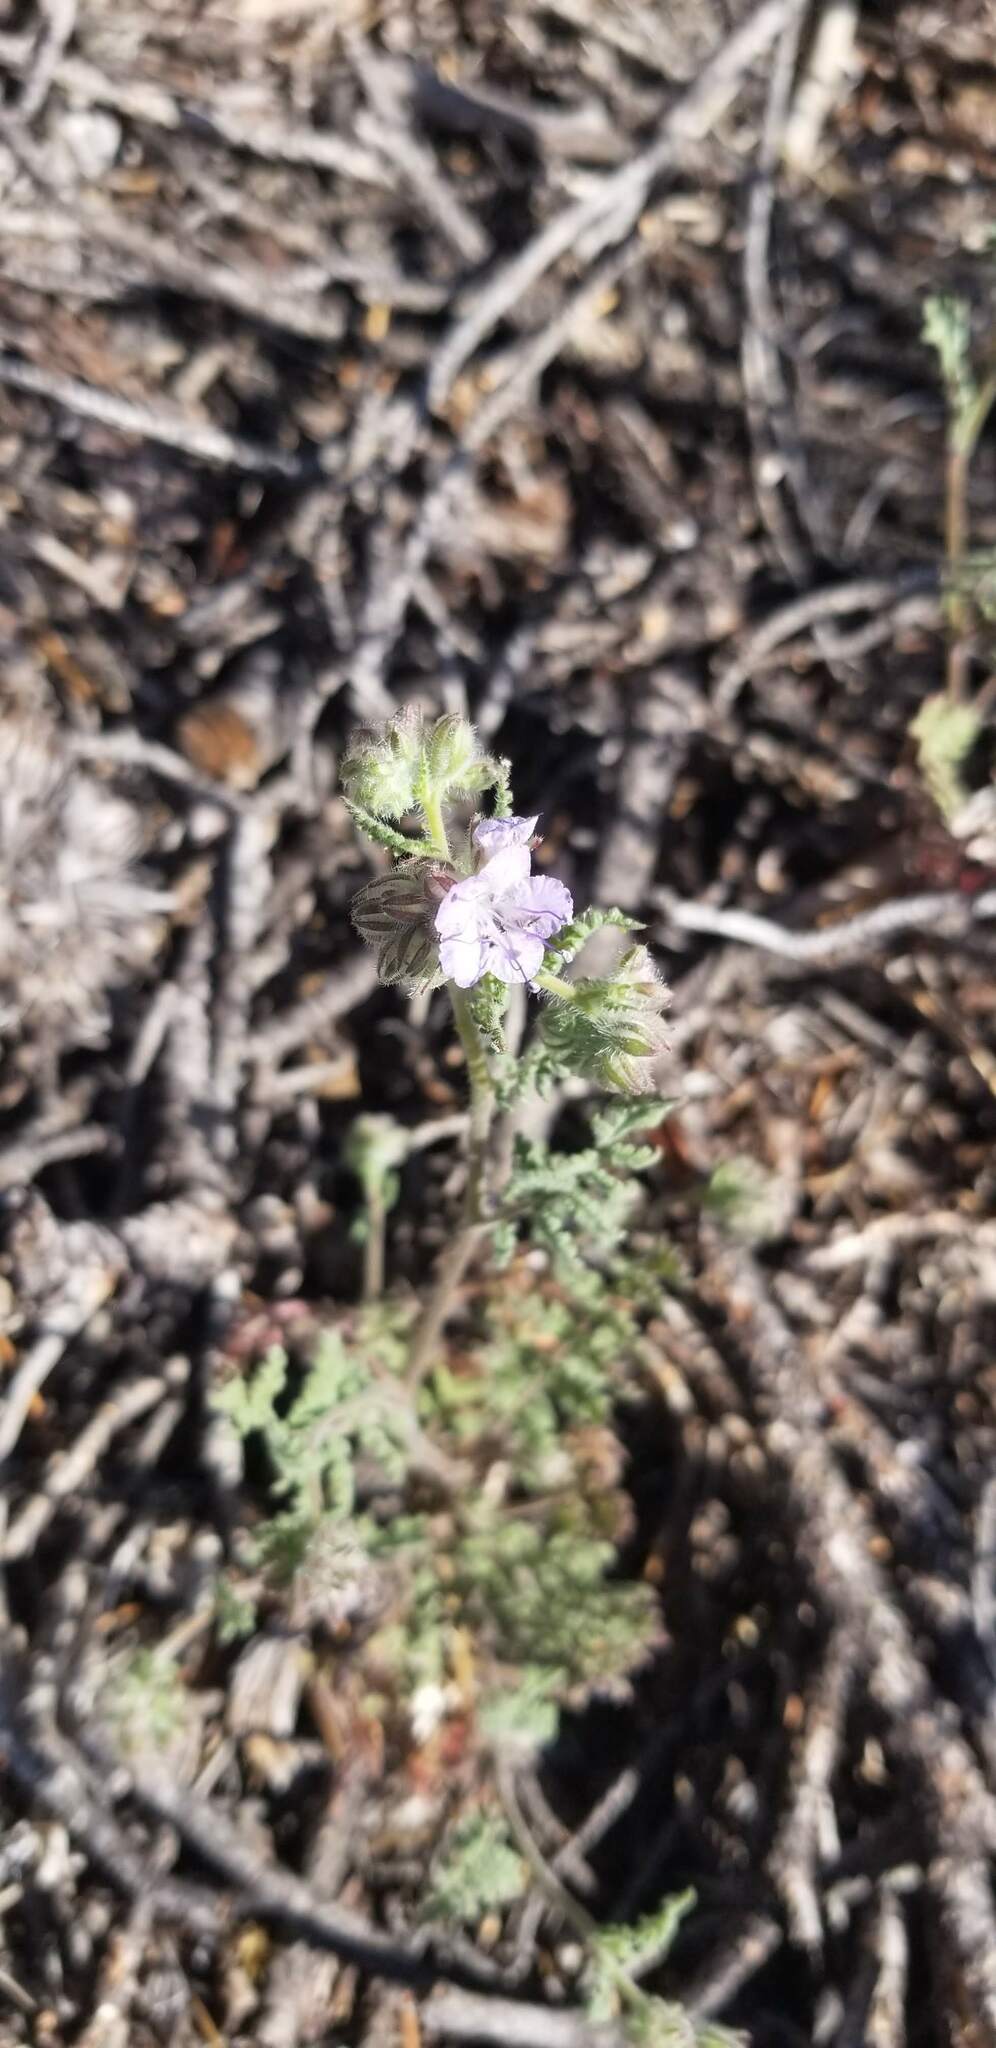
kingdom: Plantae
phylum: Tracheophyta
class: Magnoliopsida
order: Boraginales
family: Hydrophyllaceae
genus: Phacelia
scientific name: Phacelia distans
